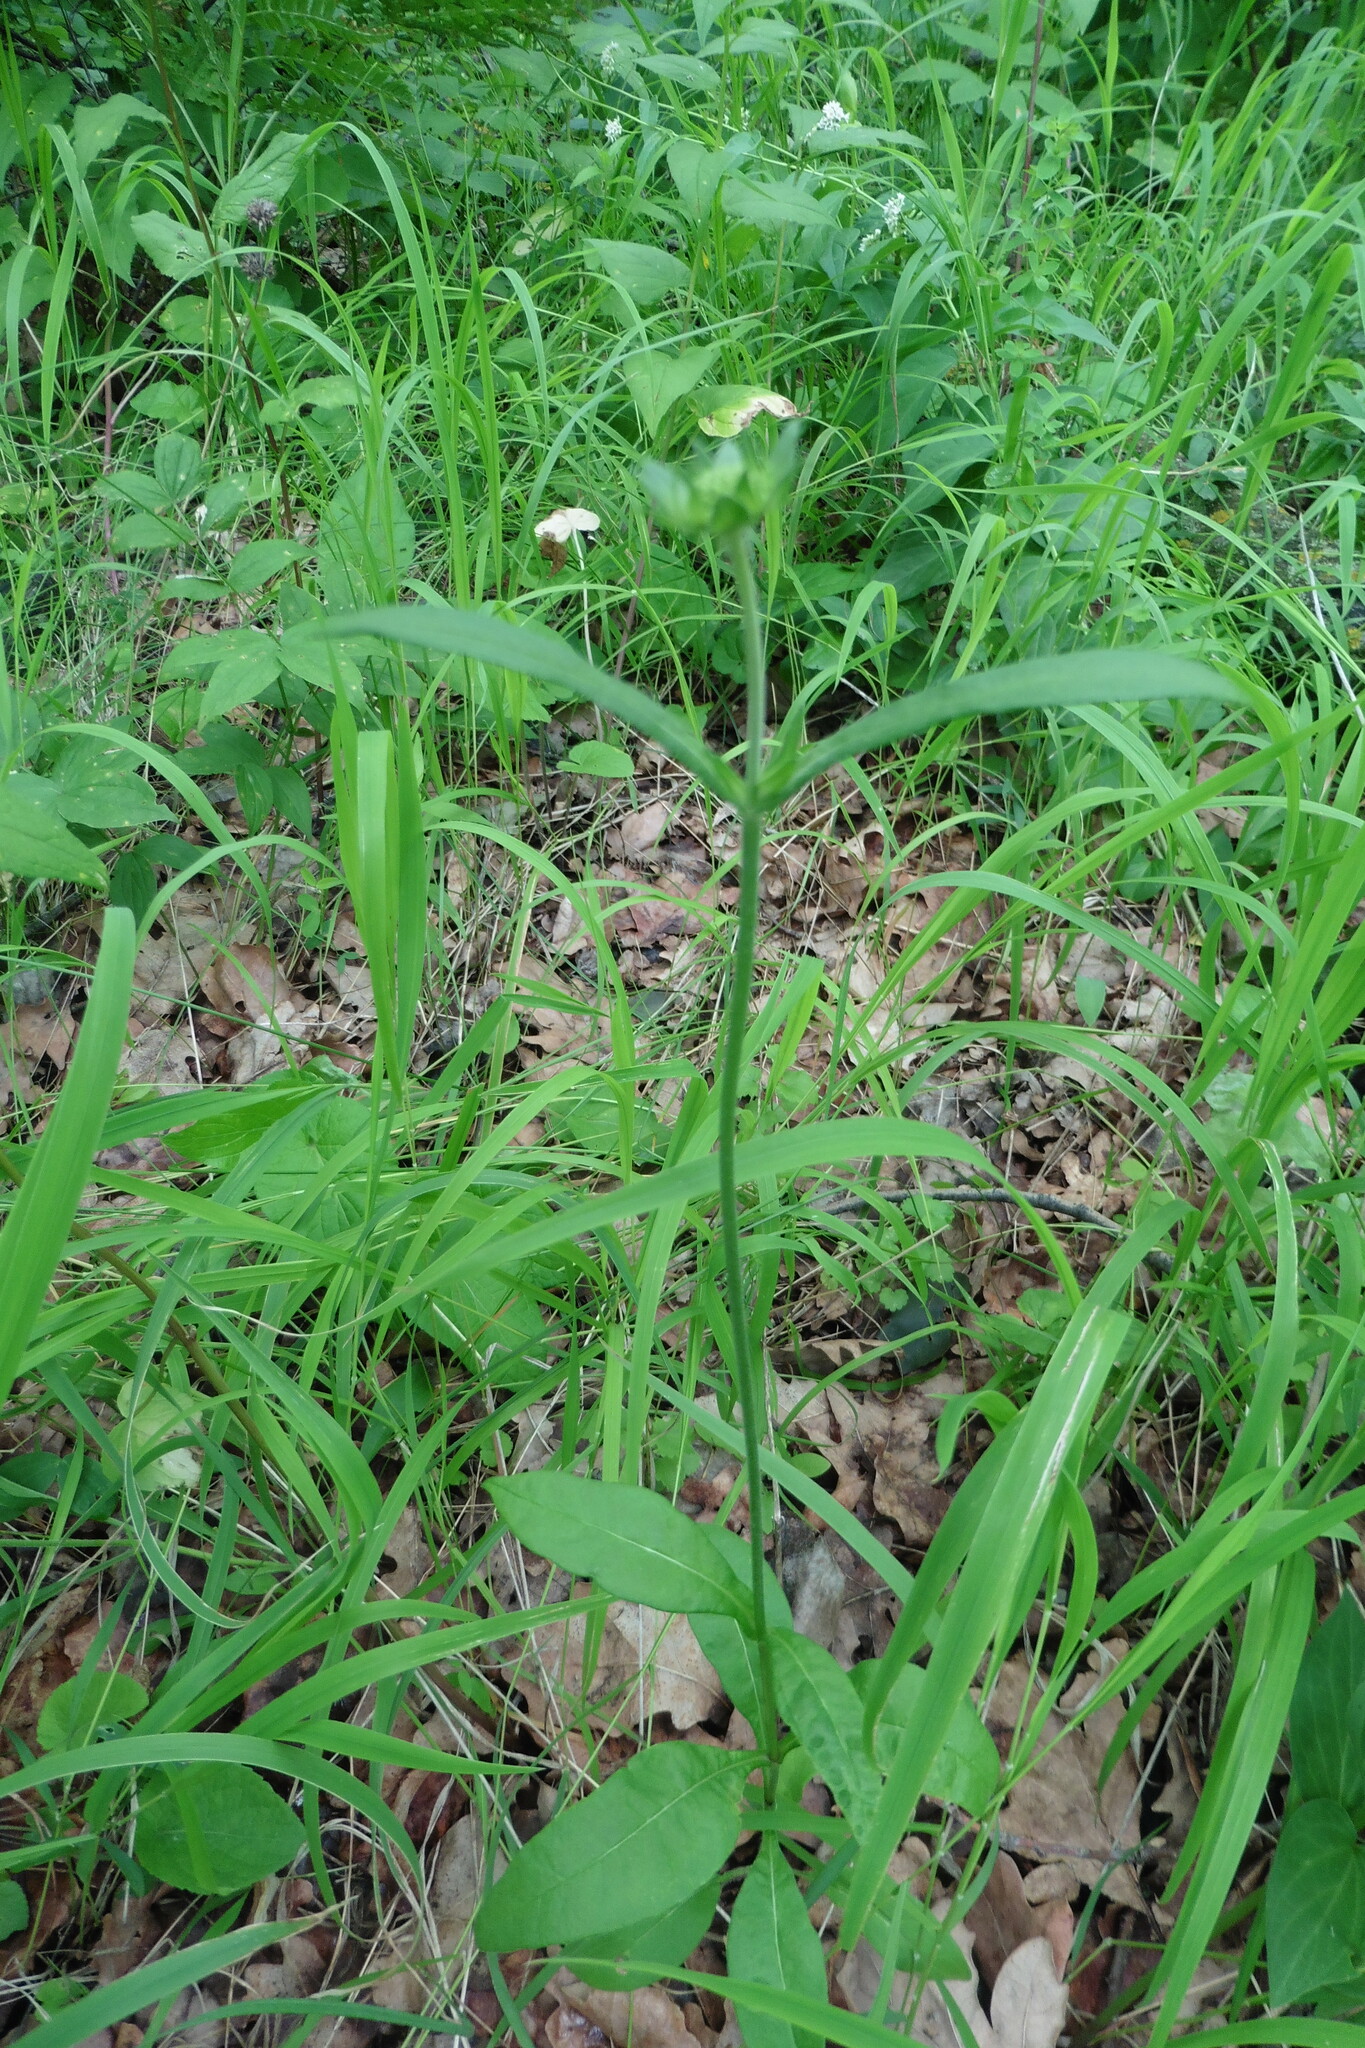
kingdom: Plantae
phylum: Tracheophyta
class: Magnoliopsida
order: Caryophyllales
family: Caryophyllaceae
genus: Silene
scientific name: Silene latifolia
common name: White campion
